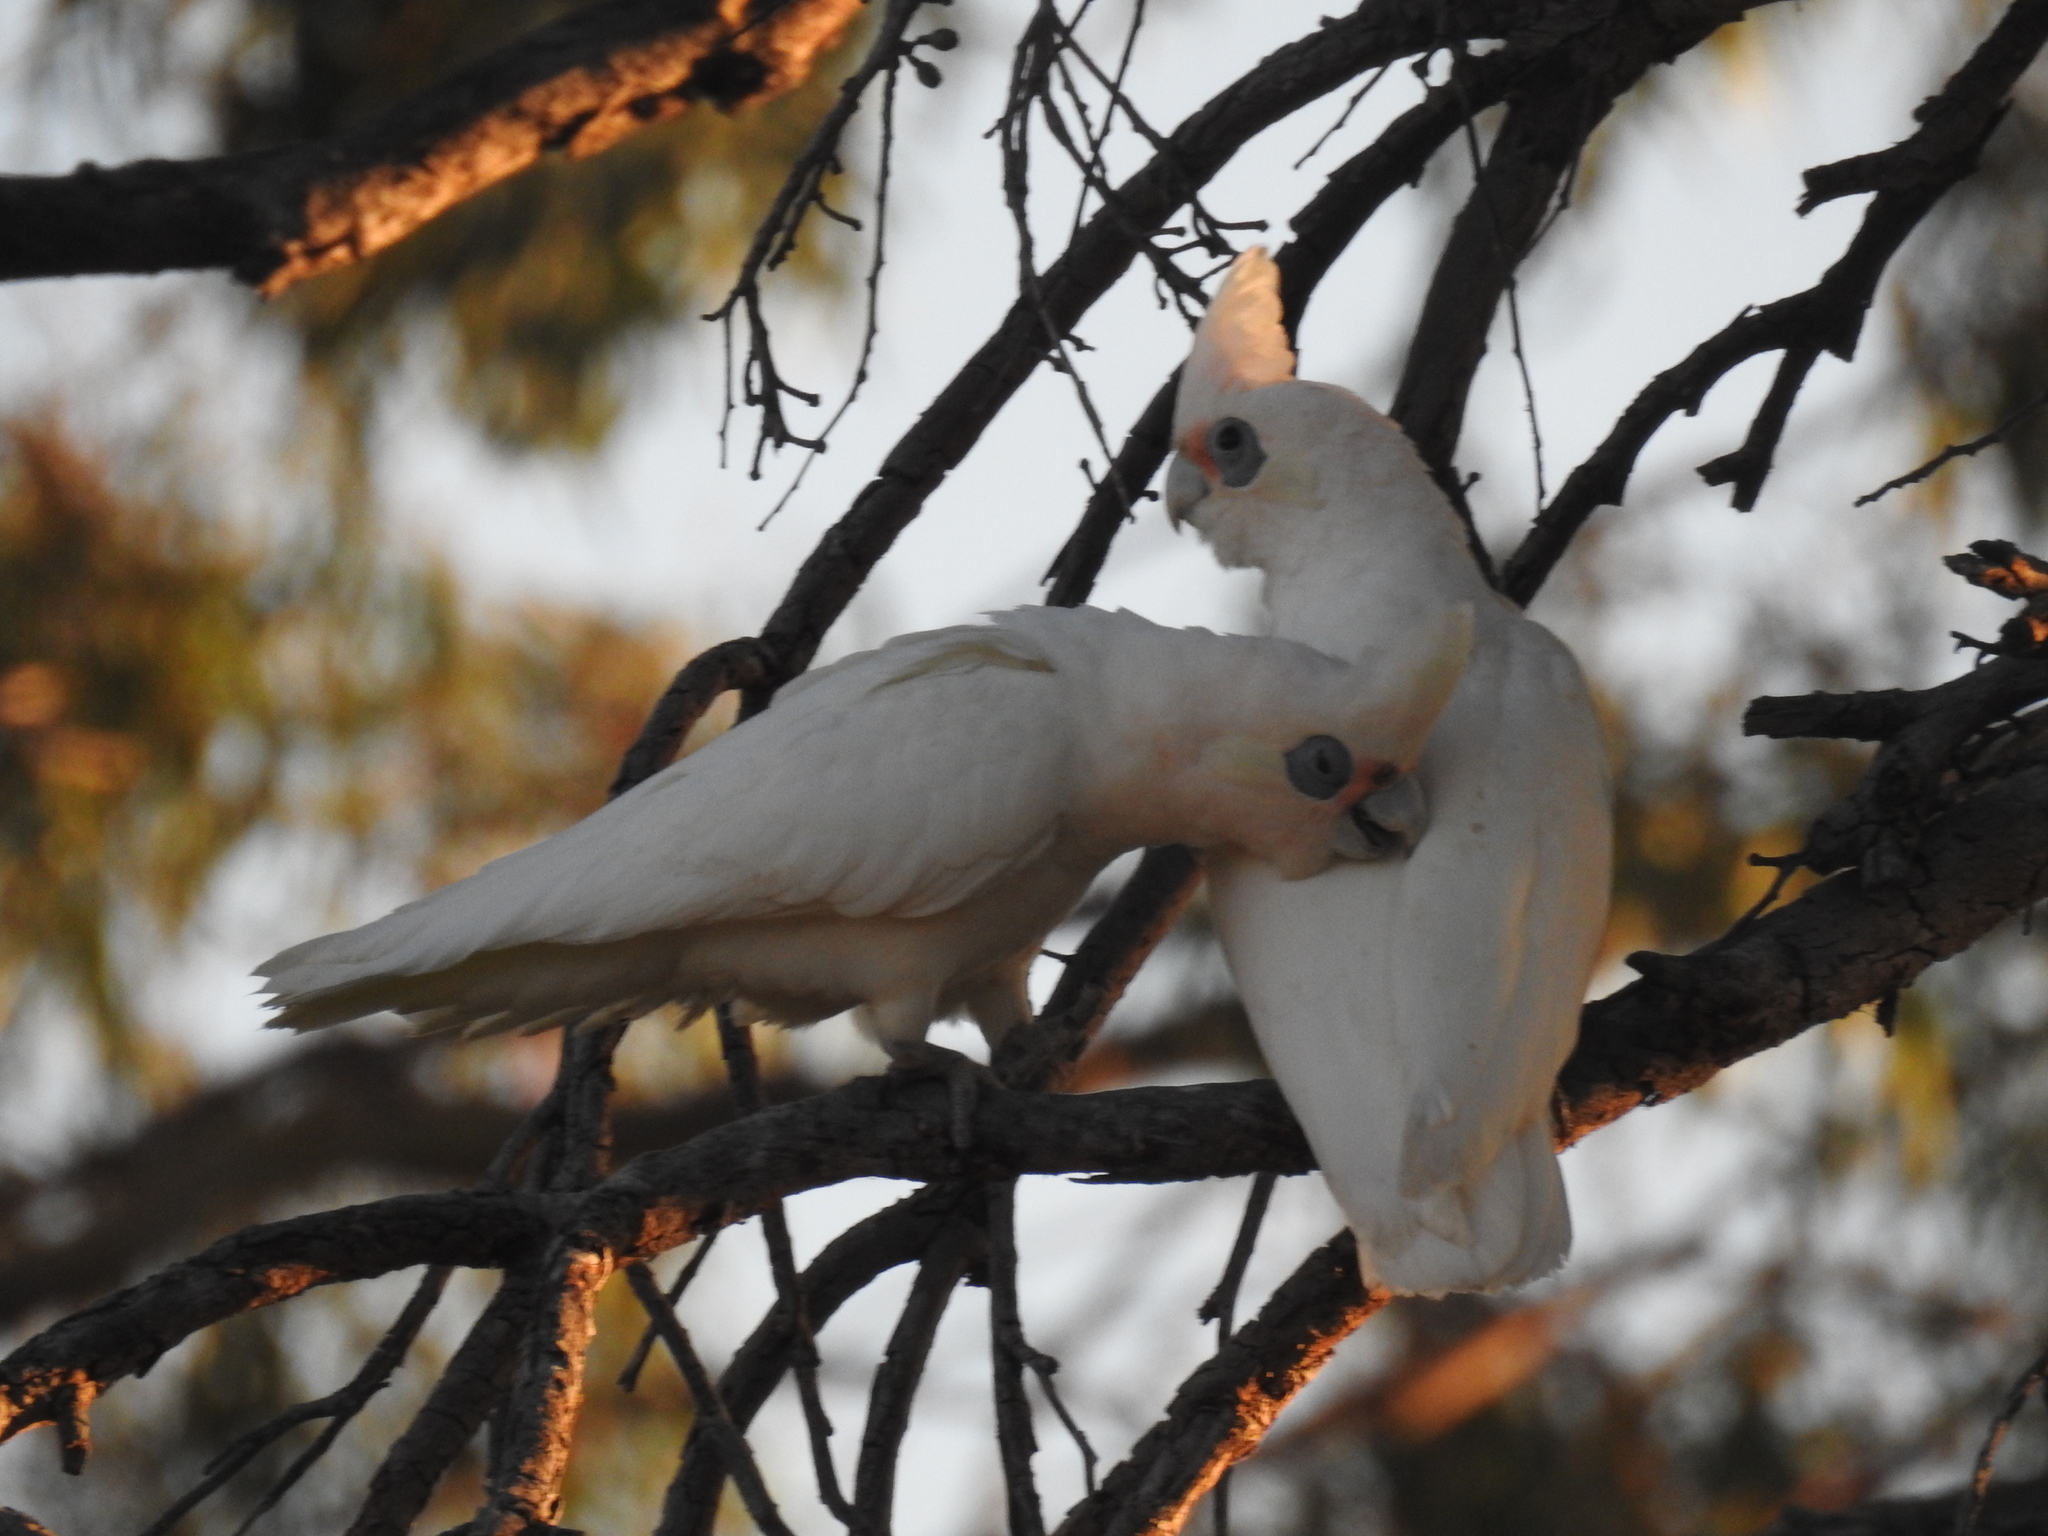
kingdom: Animalia
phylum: Chordata
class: Aves
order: Psittaciformes
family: Psittacidae
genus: Cacatua
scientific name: Cacatua sanguinea
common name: Little corella
